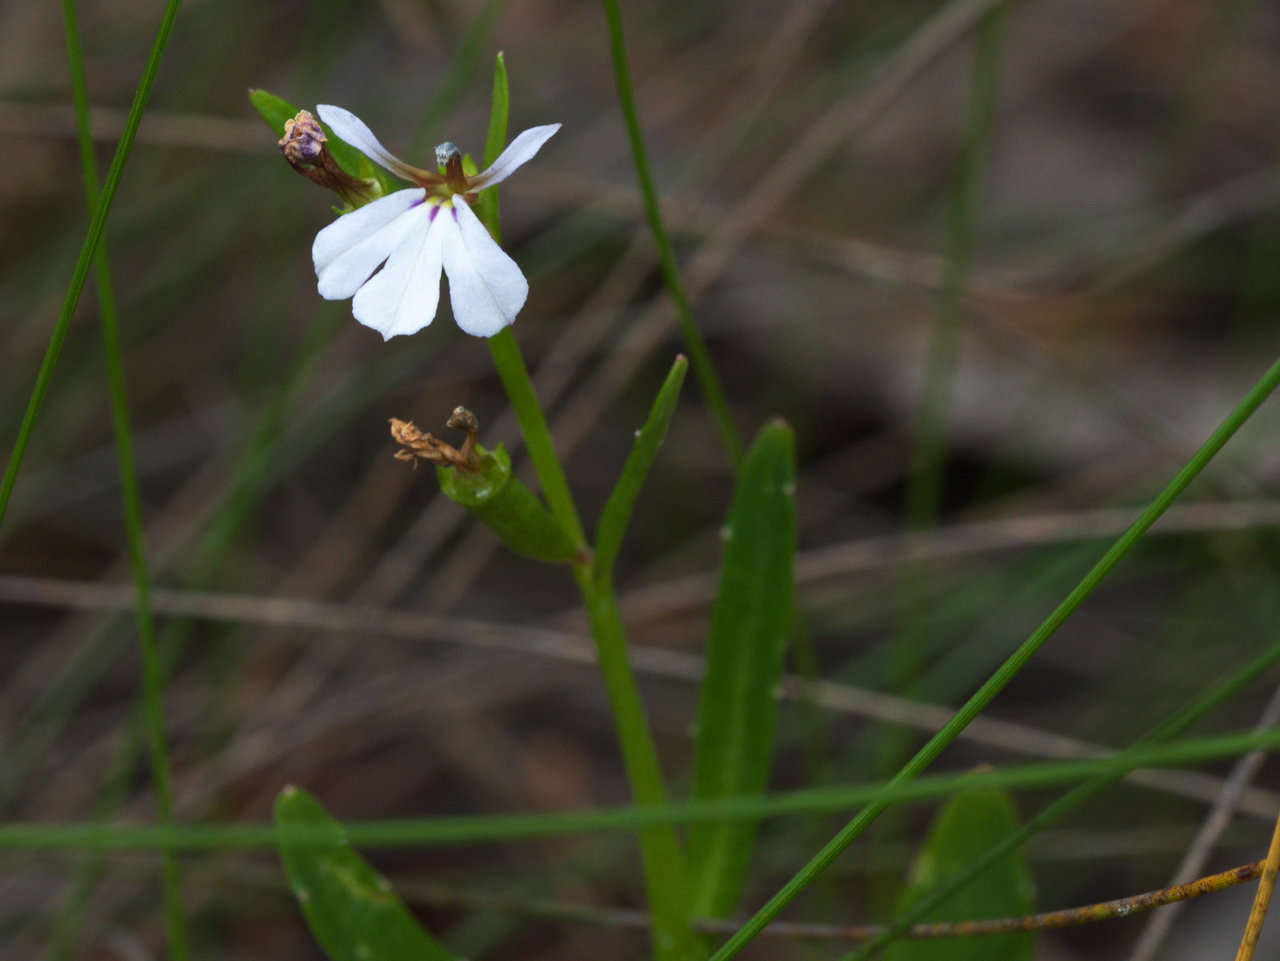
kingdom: Plantae
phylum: Tracheophyta
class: Magnoliopsida
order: Asterales
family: Campanulaceae
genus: Lobelia
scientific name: Lobelia anceps
